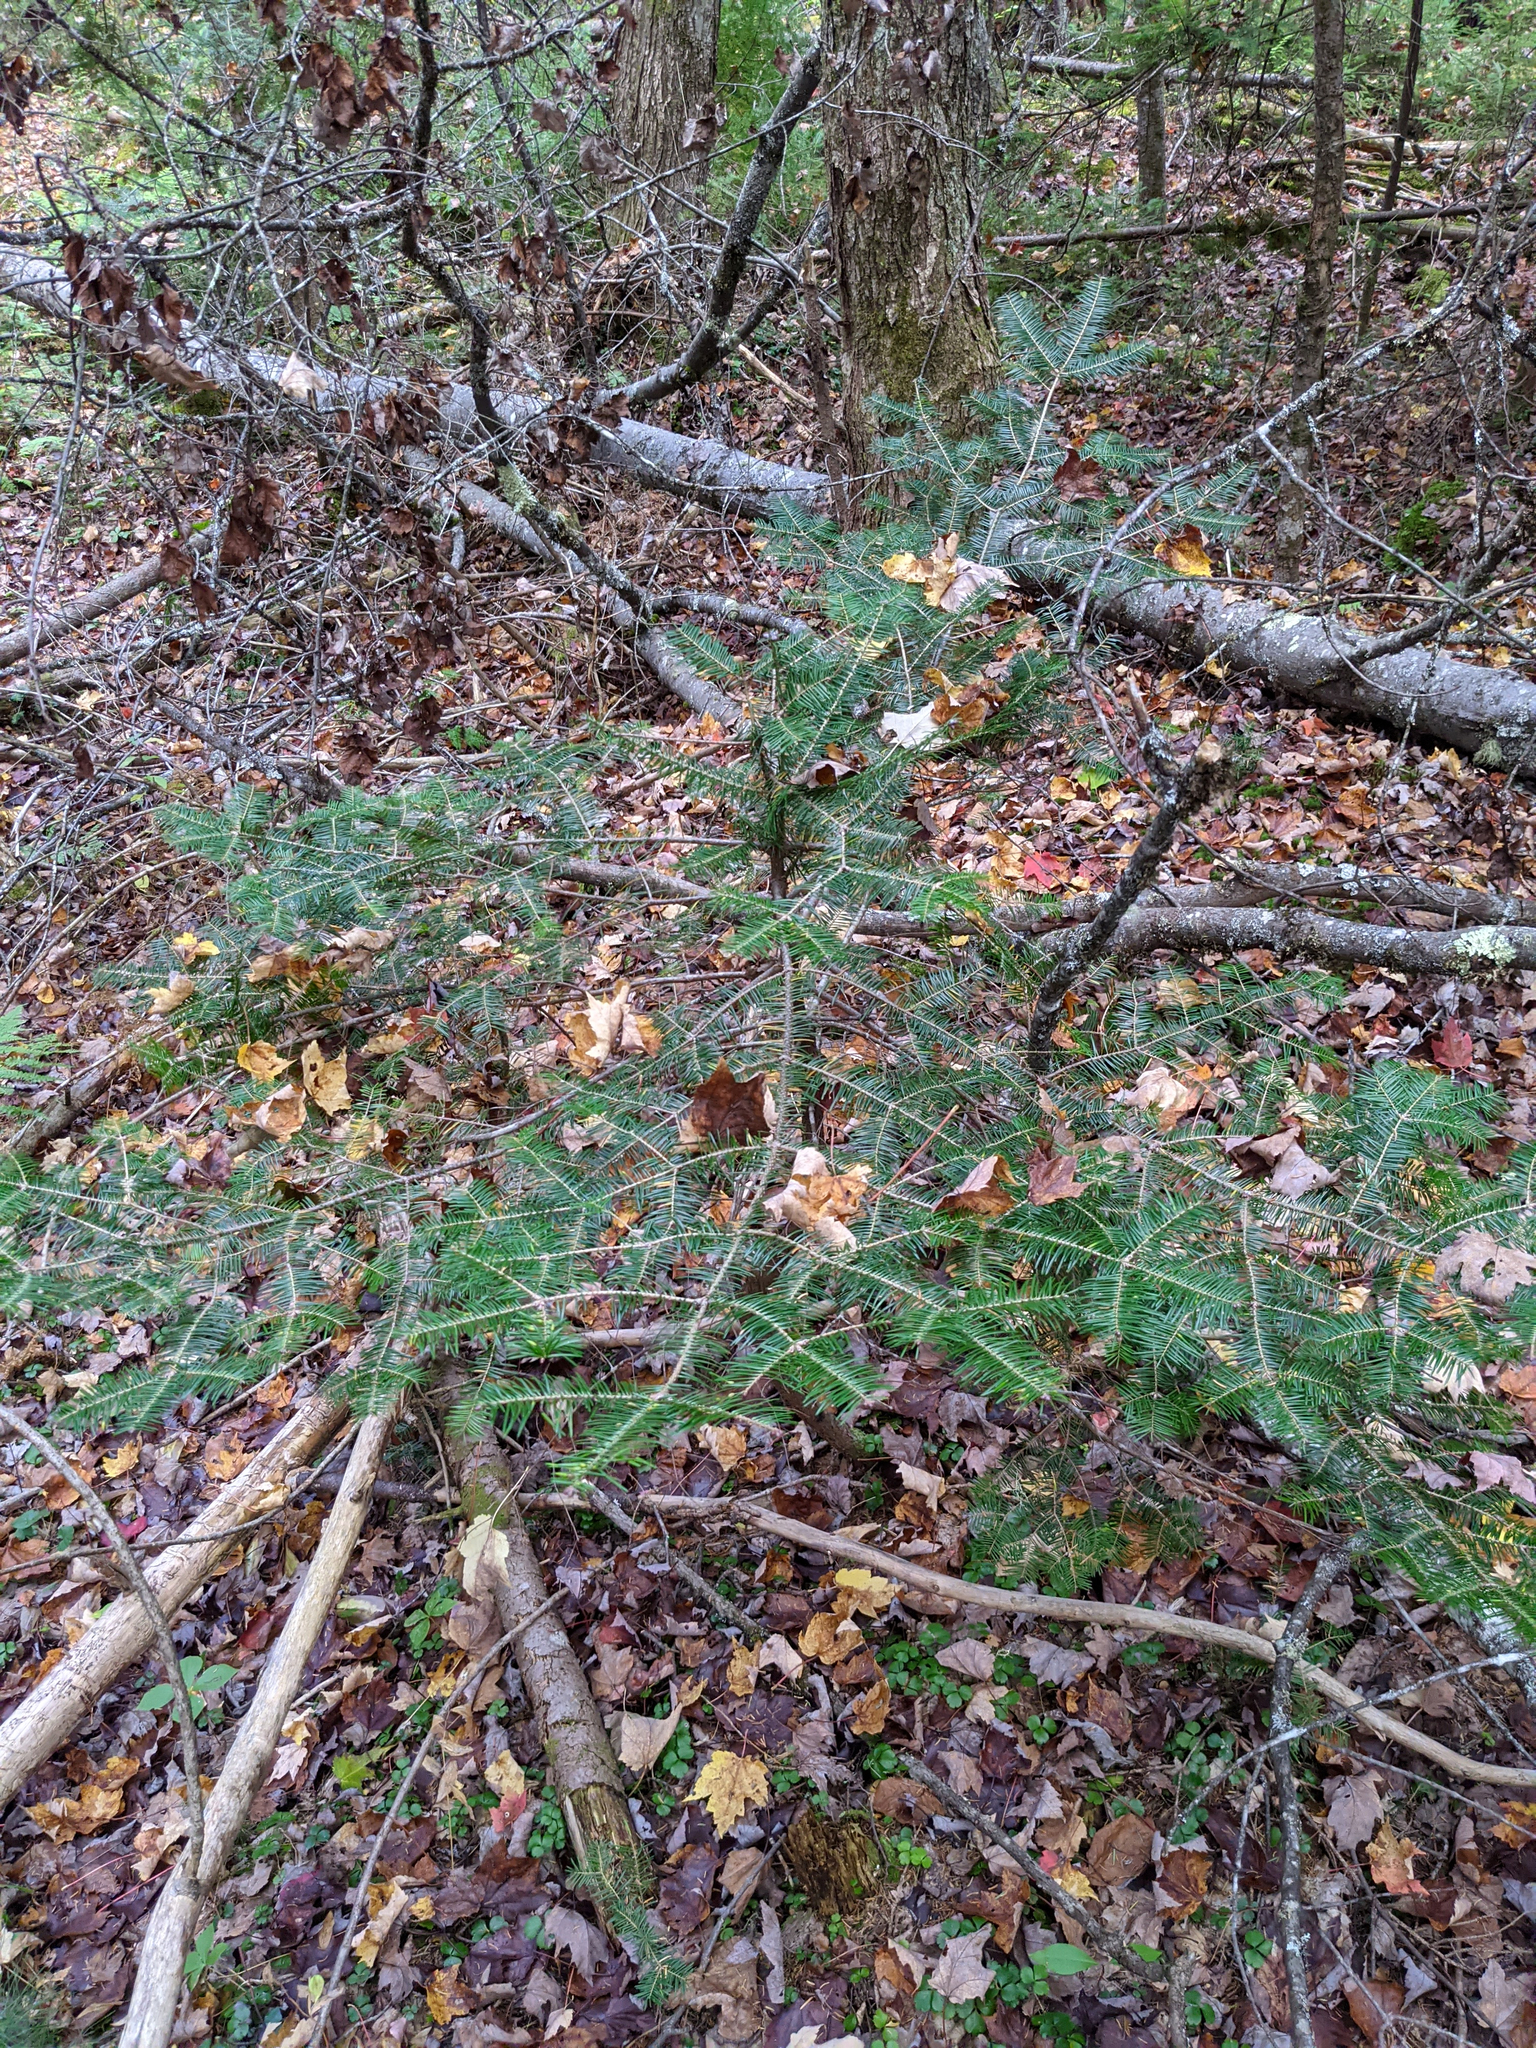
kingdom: Plantae
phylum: Tracheophyta
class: Pinopsida
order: Pinales
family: Pinaceae
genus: Abies
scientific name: Abies balsamea
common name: Balsam fir
